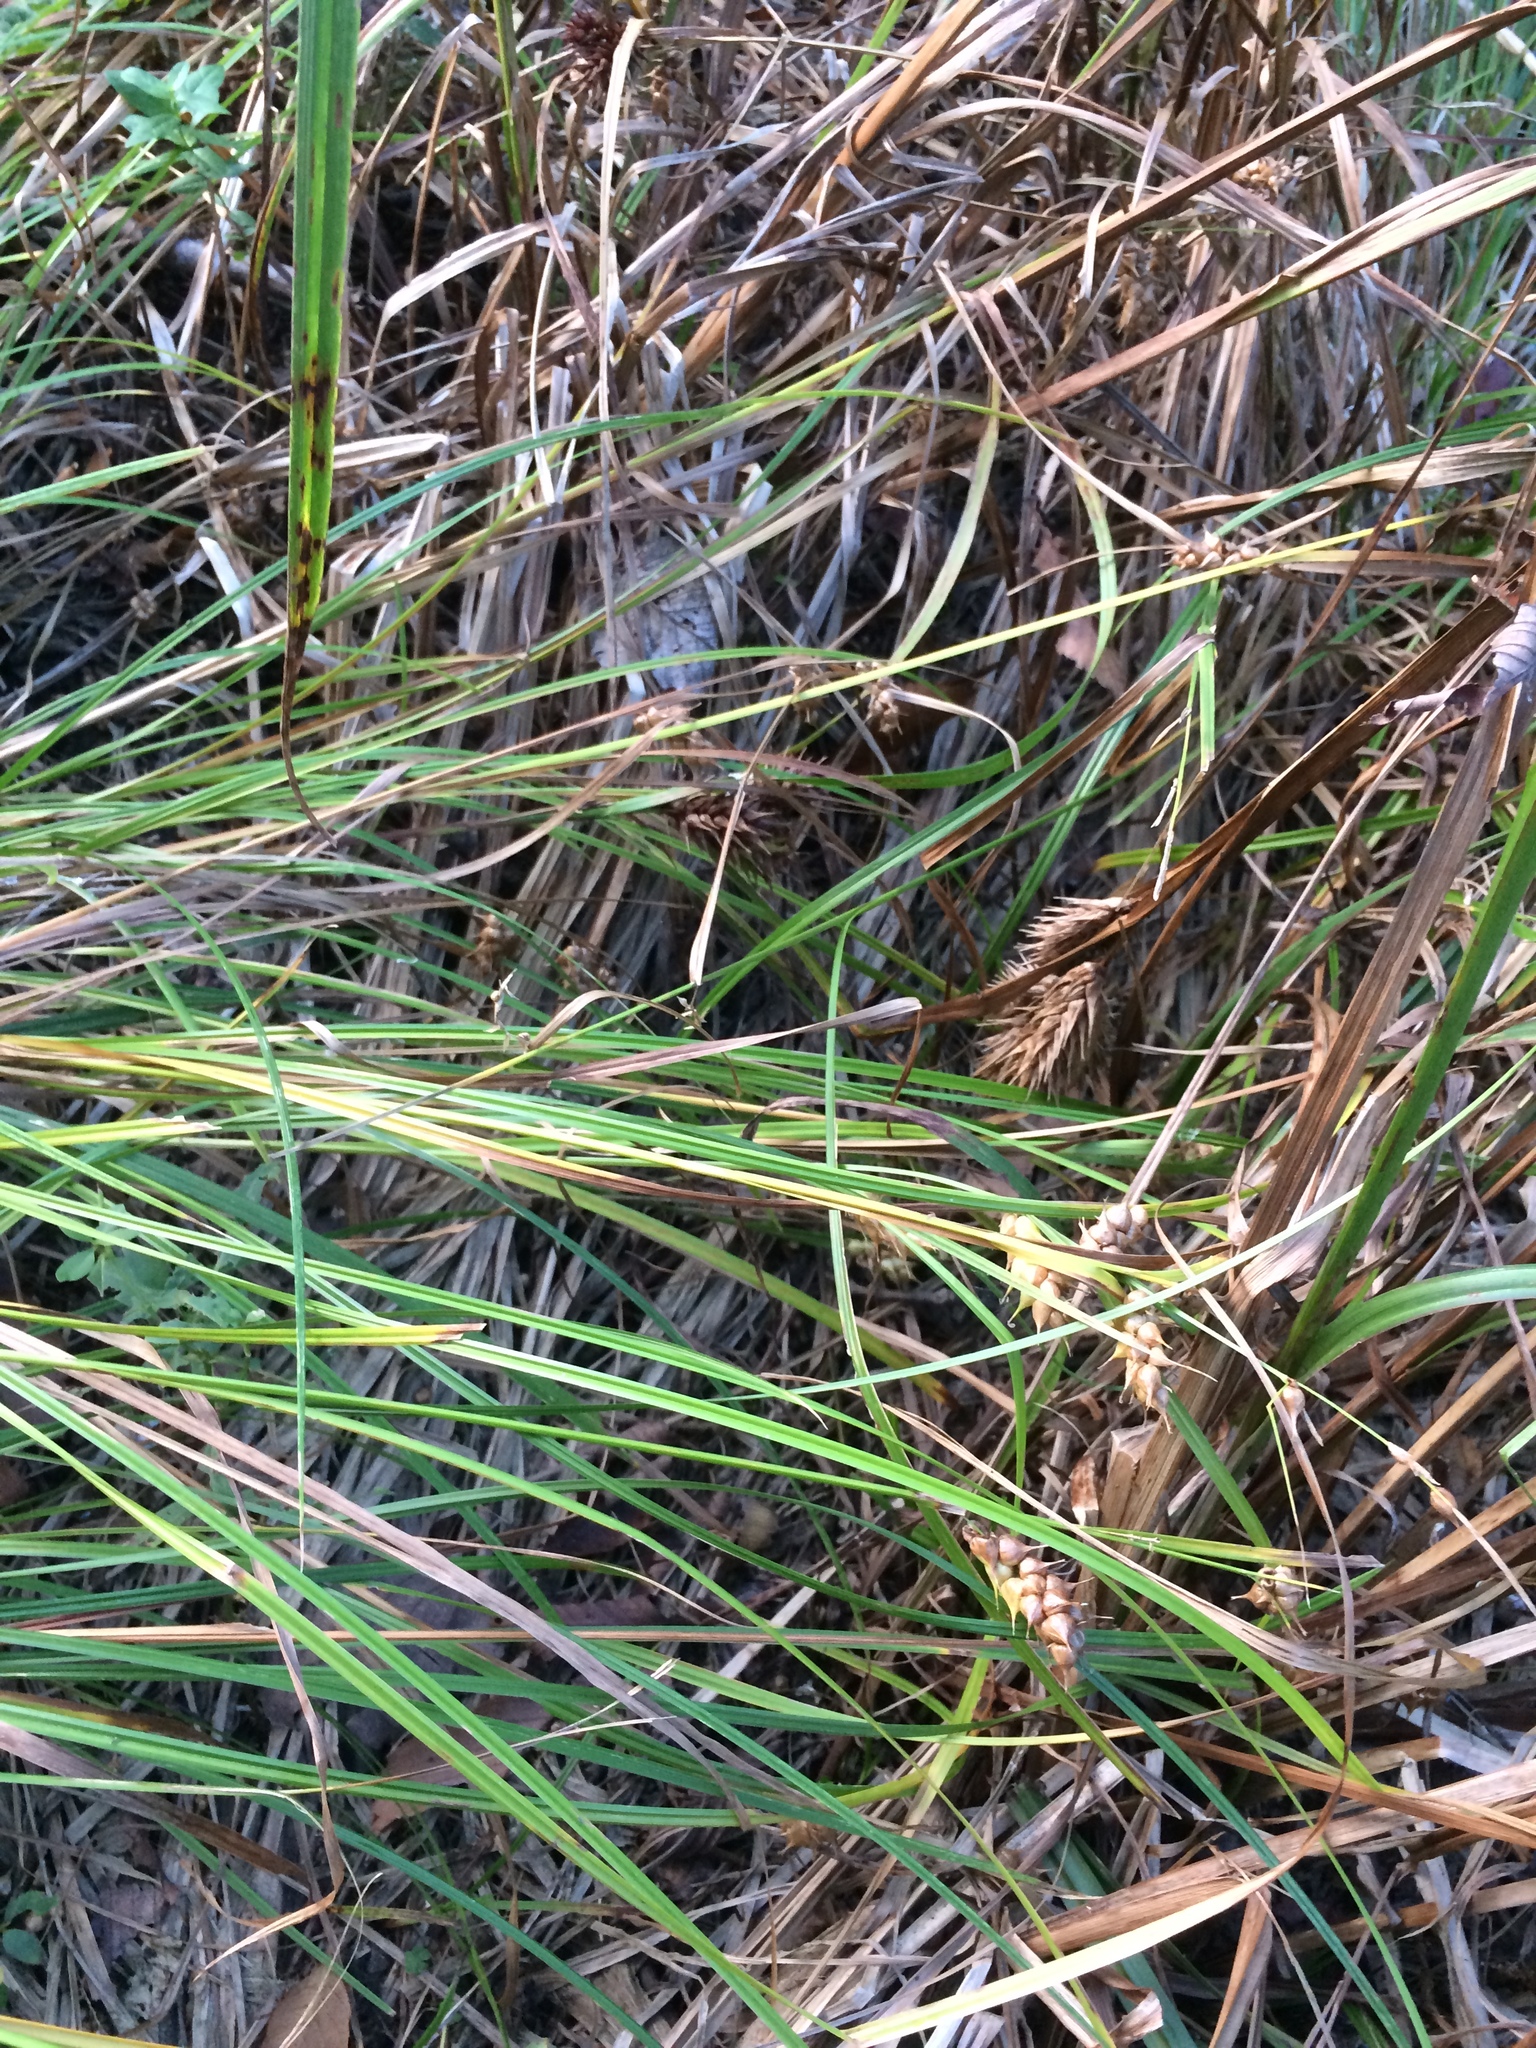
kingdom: Plantae
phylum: Tracheophyta
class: Liliopsida
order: Poales
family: Cyperaceae
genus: Carex
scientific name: Carex tuckermanii
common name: Tuckerman's sedge
